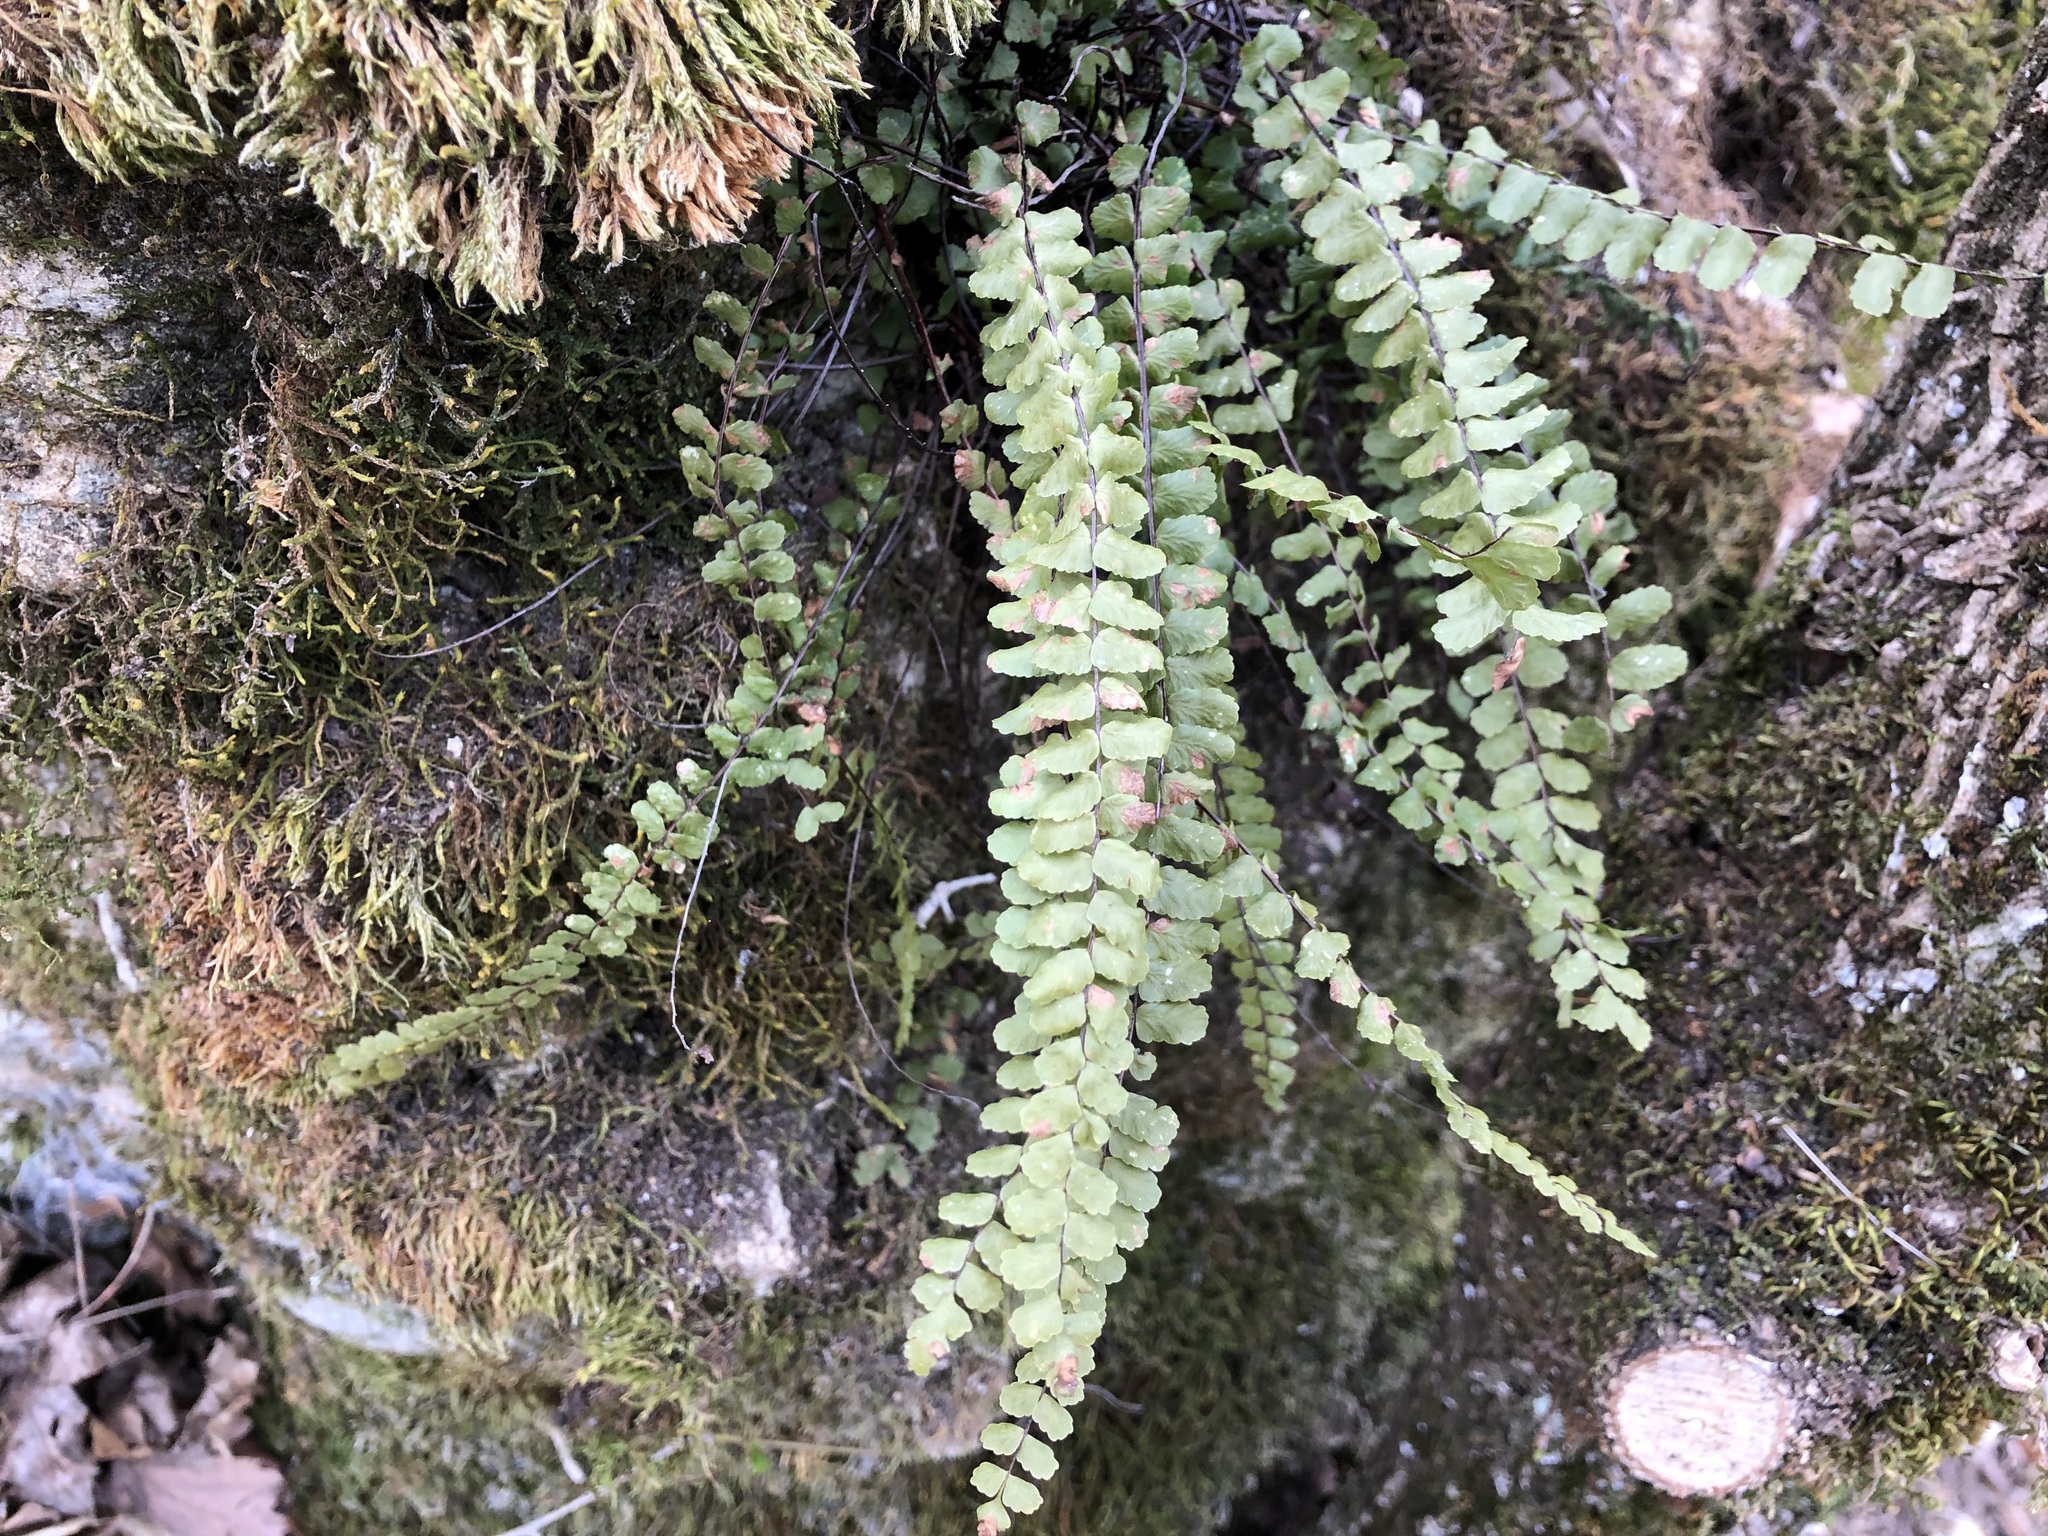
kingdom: Plantae
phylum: Tracheophyta
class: Polypodiopsida
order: Polypodiales
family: Aspleniaceae
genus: Asplenium
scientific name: Asplenium trichomanes
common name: Maidenhair spleenwort
